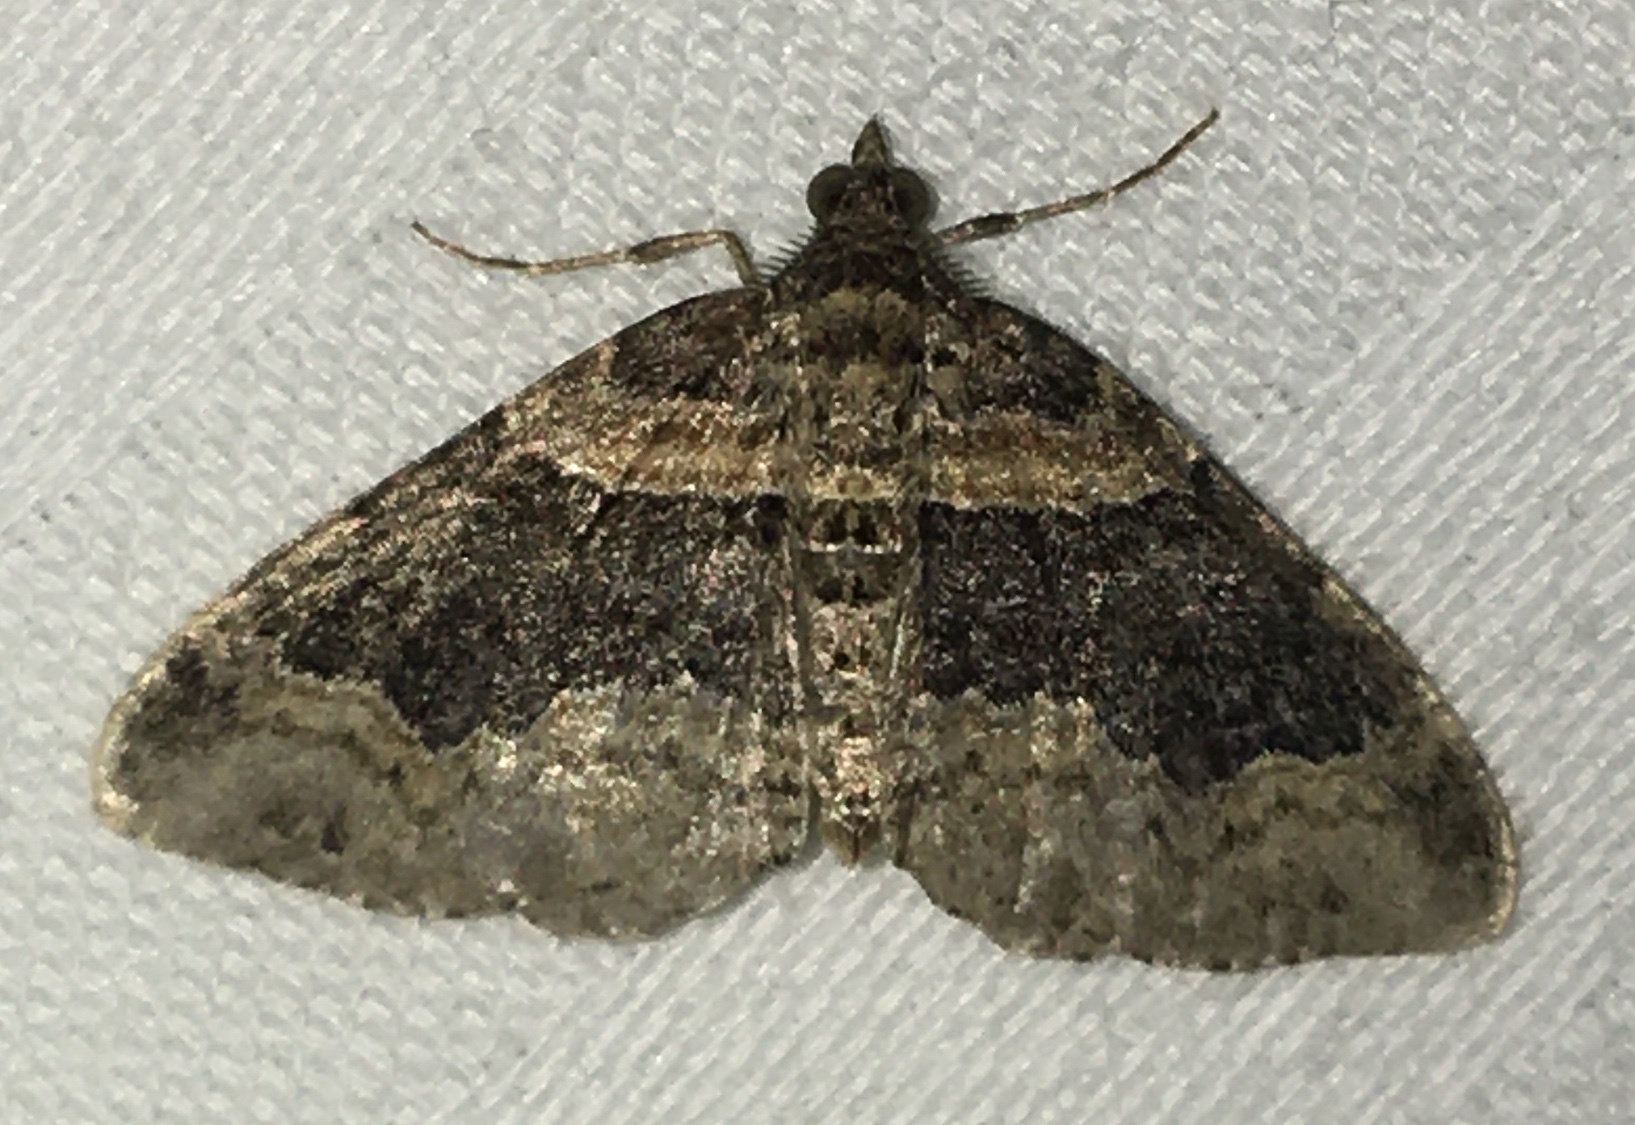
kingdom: Animalia
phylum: Arthropoda
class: Insecta
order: Lepidoptera
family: Geometridae
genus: Xanthorhoe
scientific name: Xanthorhoe ferrugata
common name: Dark-barred twin-spot carpet
